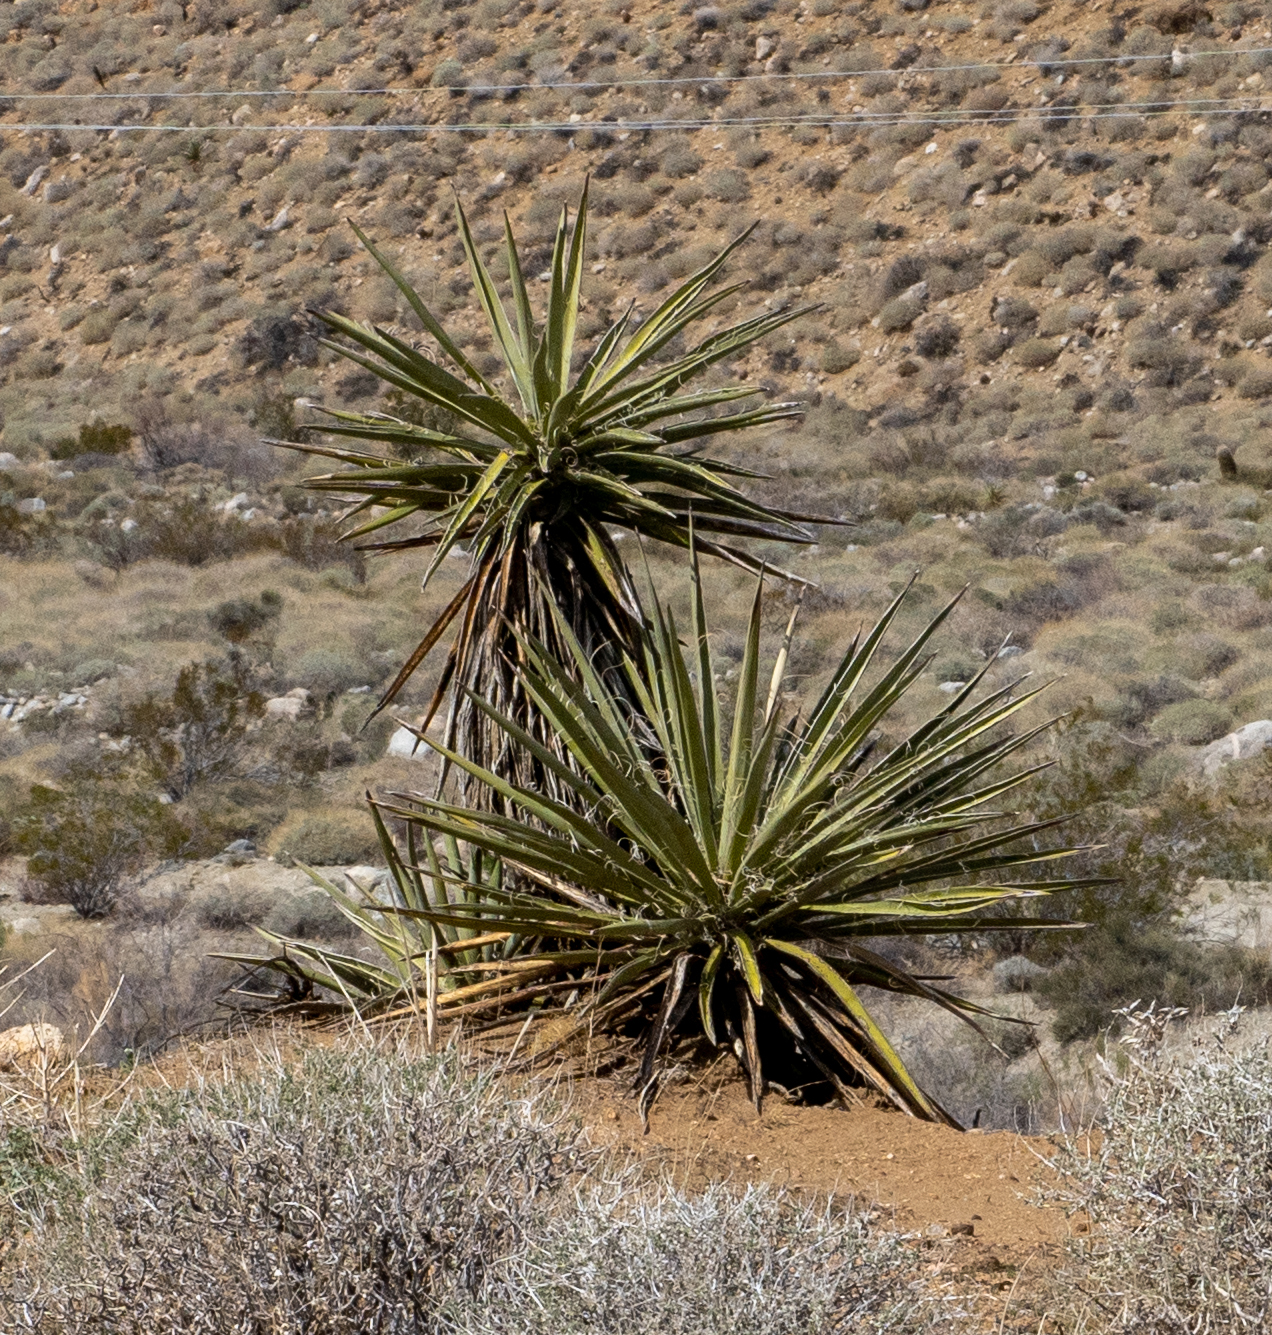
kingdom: Plantae
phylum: Tracheophyta
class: Liliopsida
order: Asparagales
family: Asparagaceae
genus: Yucca
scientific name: Yucca schidigera
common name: Mojave yucca
